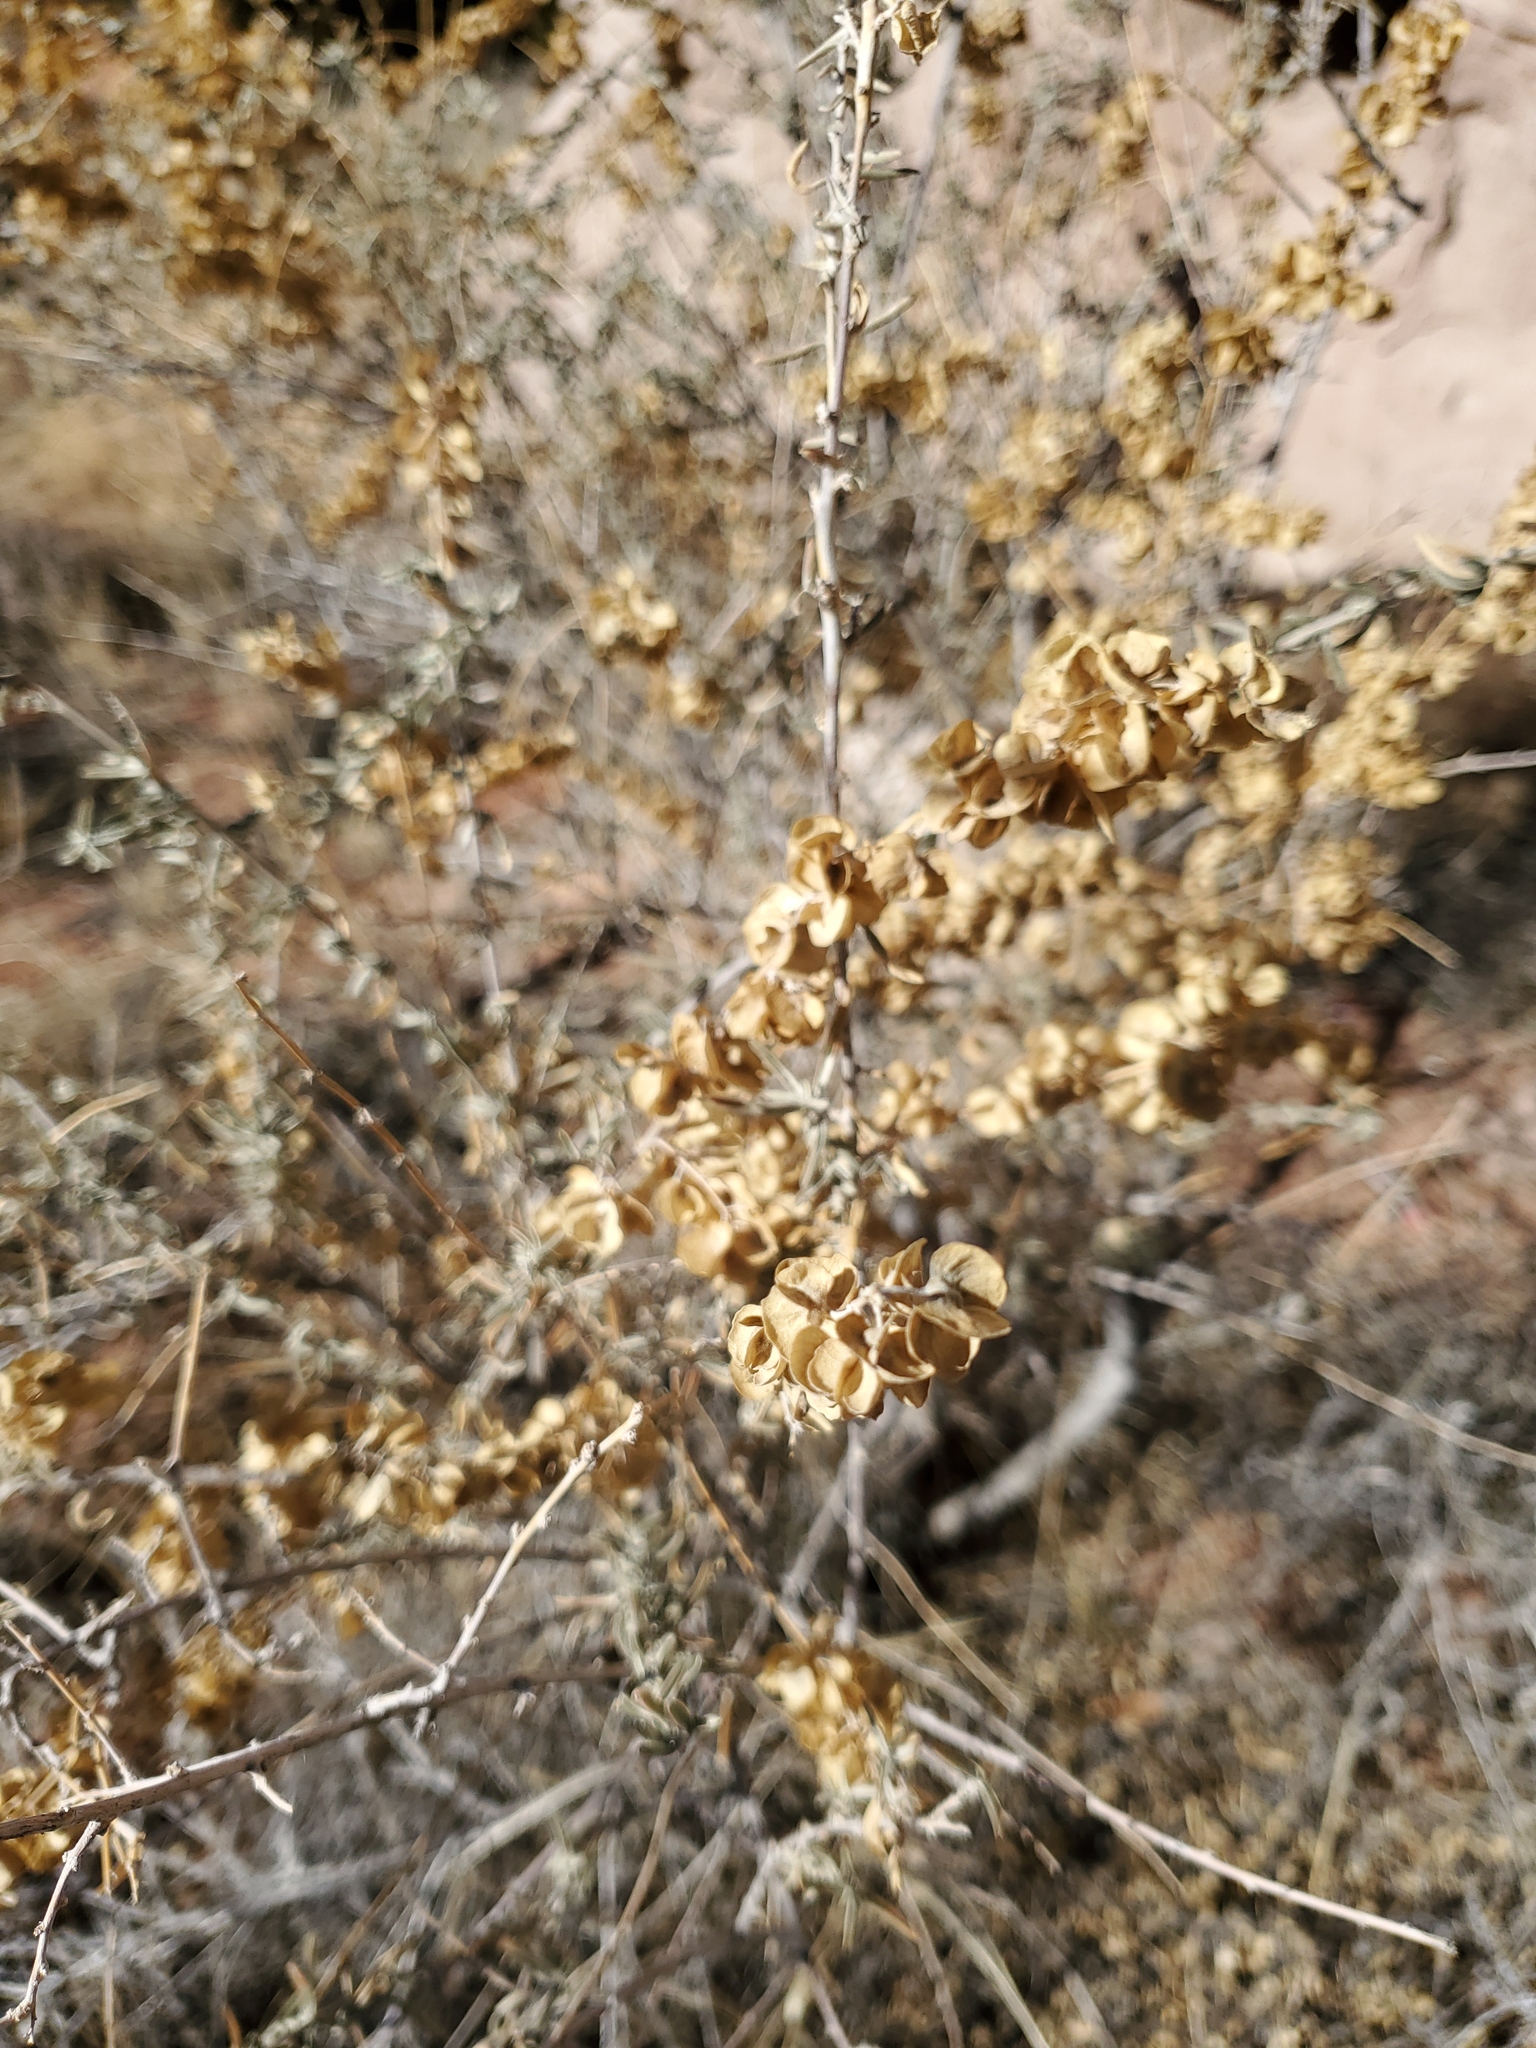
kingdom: Plantae
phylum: Tracheophyta
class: Magnoliopsida
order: Caryophyllales
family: Amaranthaceae
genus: Atriplex
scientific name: Atriplex canescens
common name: Four-wing saltbush
